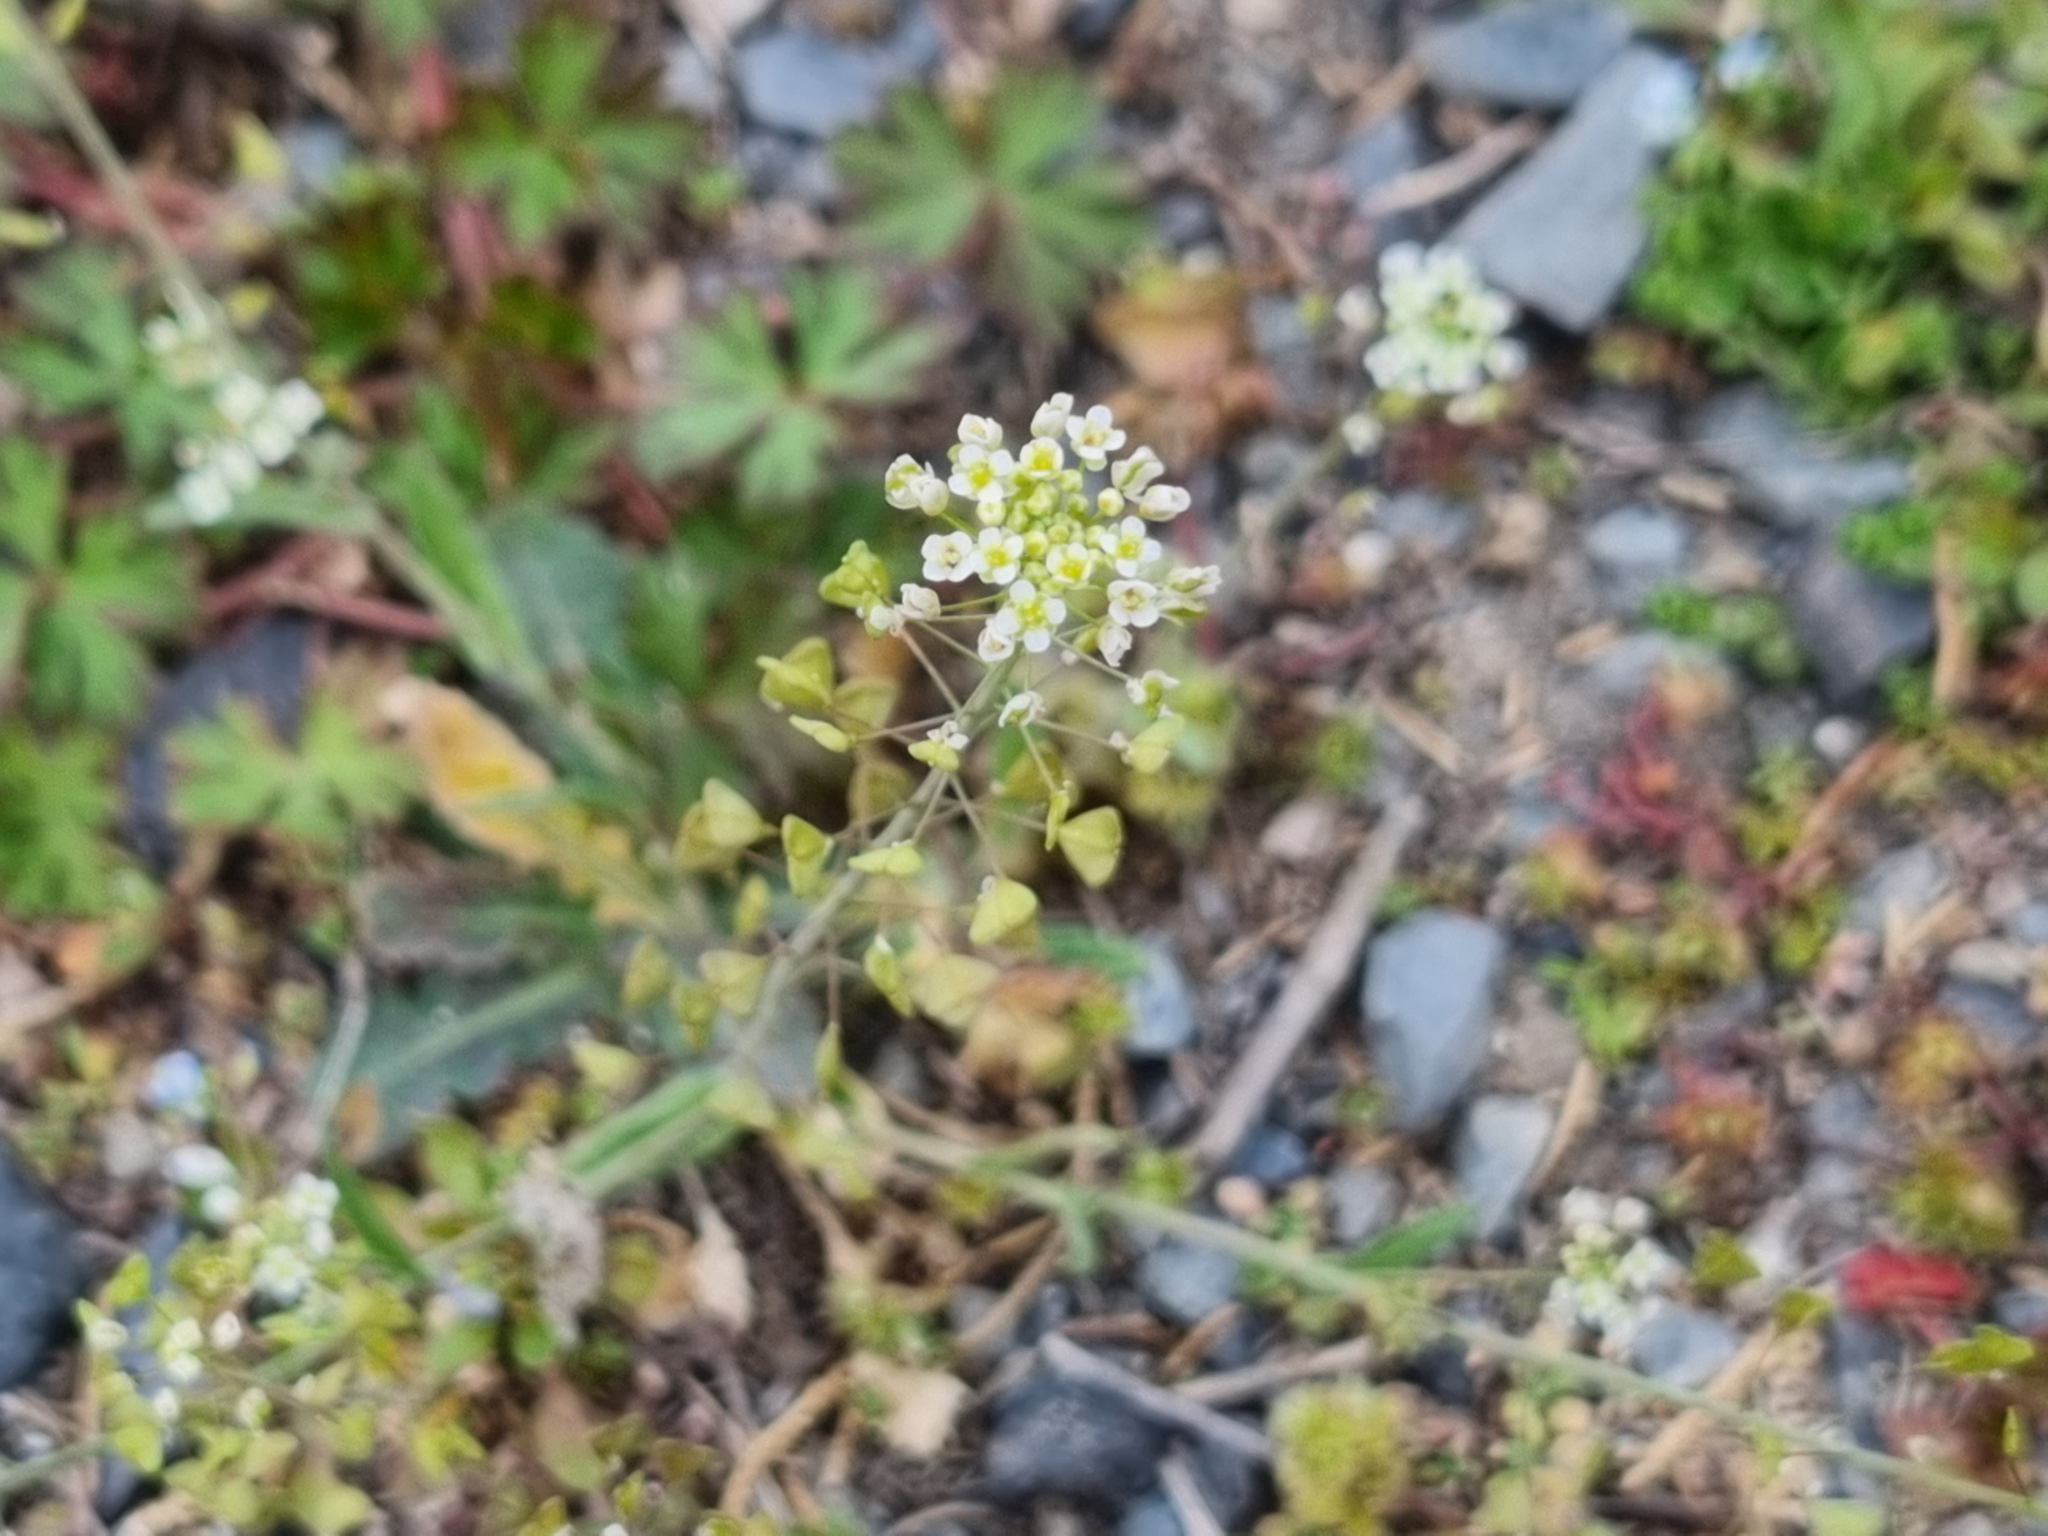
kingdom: Plantae
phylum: Tracheophyta
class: Magnoliopsida
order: Brassicales
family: Brassicaceae
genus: Capsella
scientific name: Capsella bursa-pastoris
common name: Shepherd's purse
